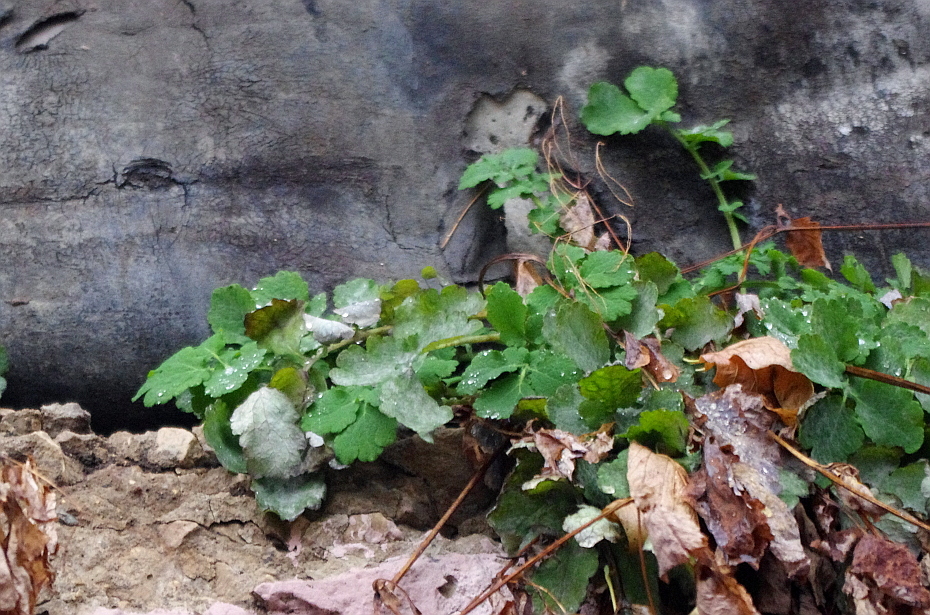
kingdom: Plantae
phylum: Tracheophyta
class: Magnoliopsida
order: Ranunculales
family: Papaveraceae
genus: Chelidonium
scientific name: Chelidonium majus
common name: Greater celandine
